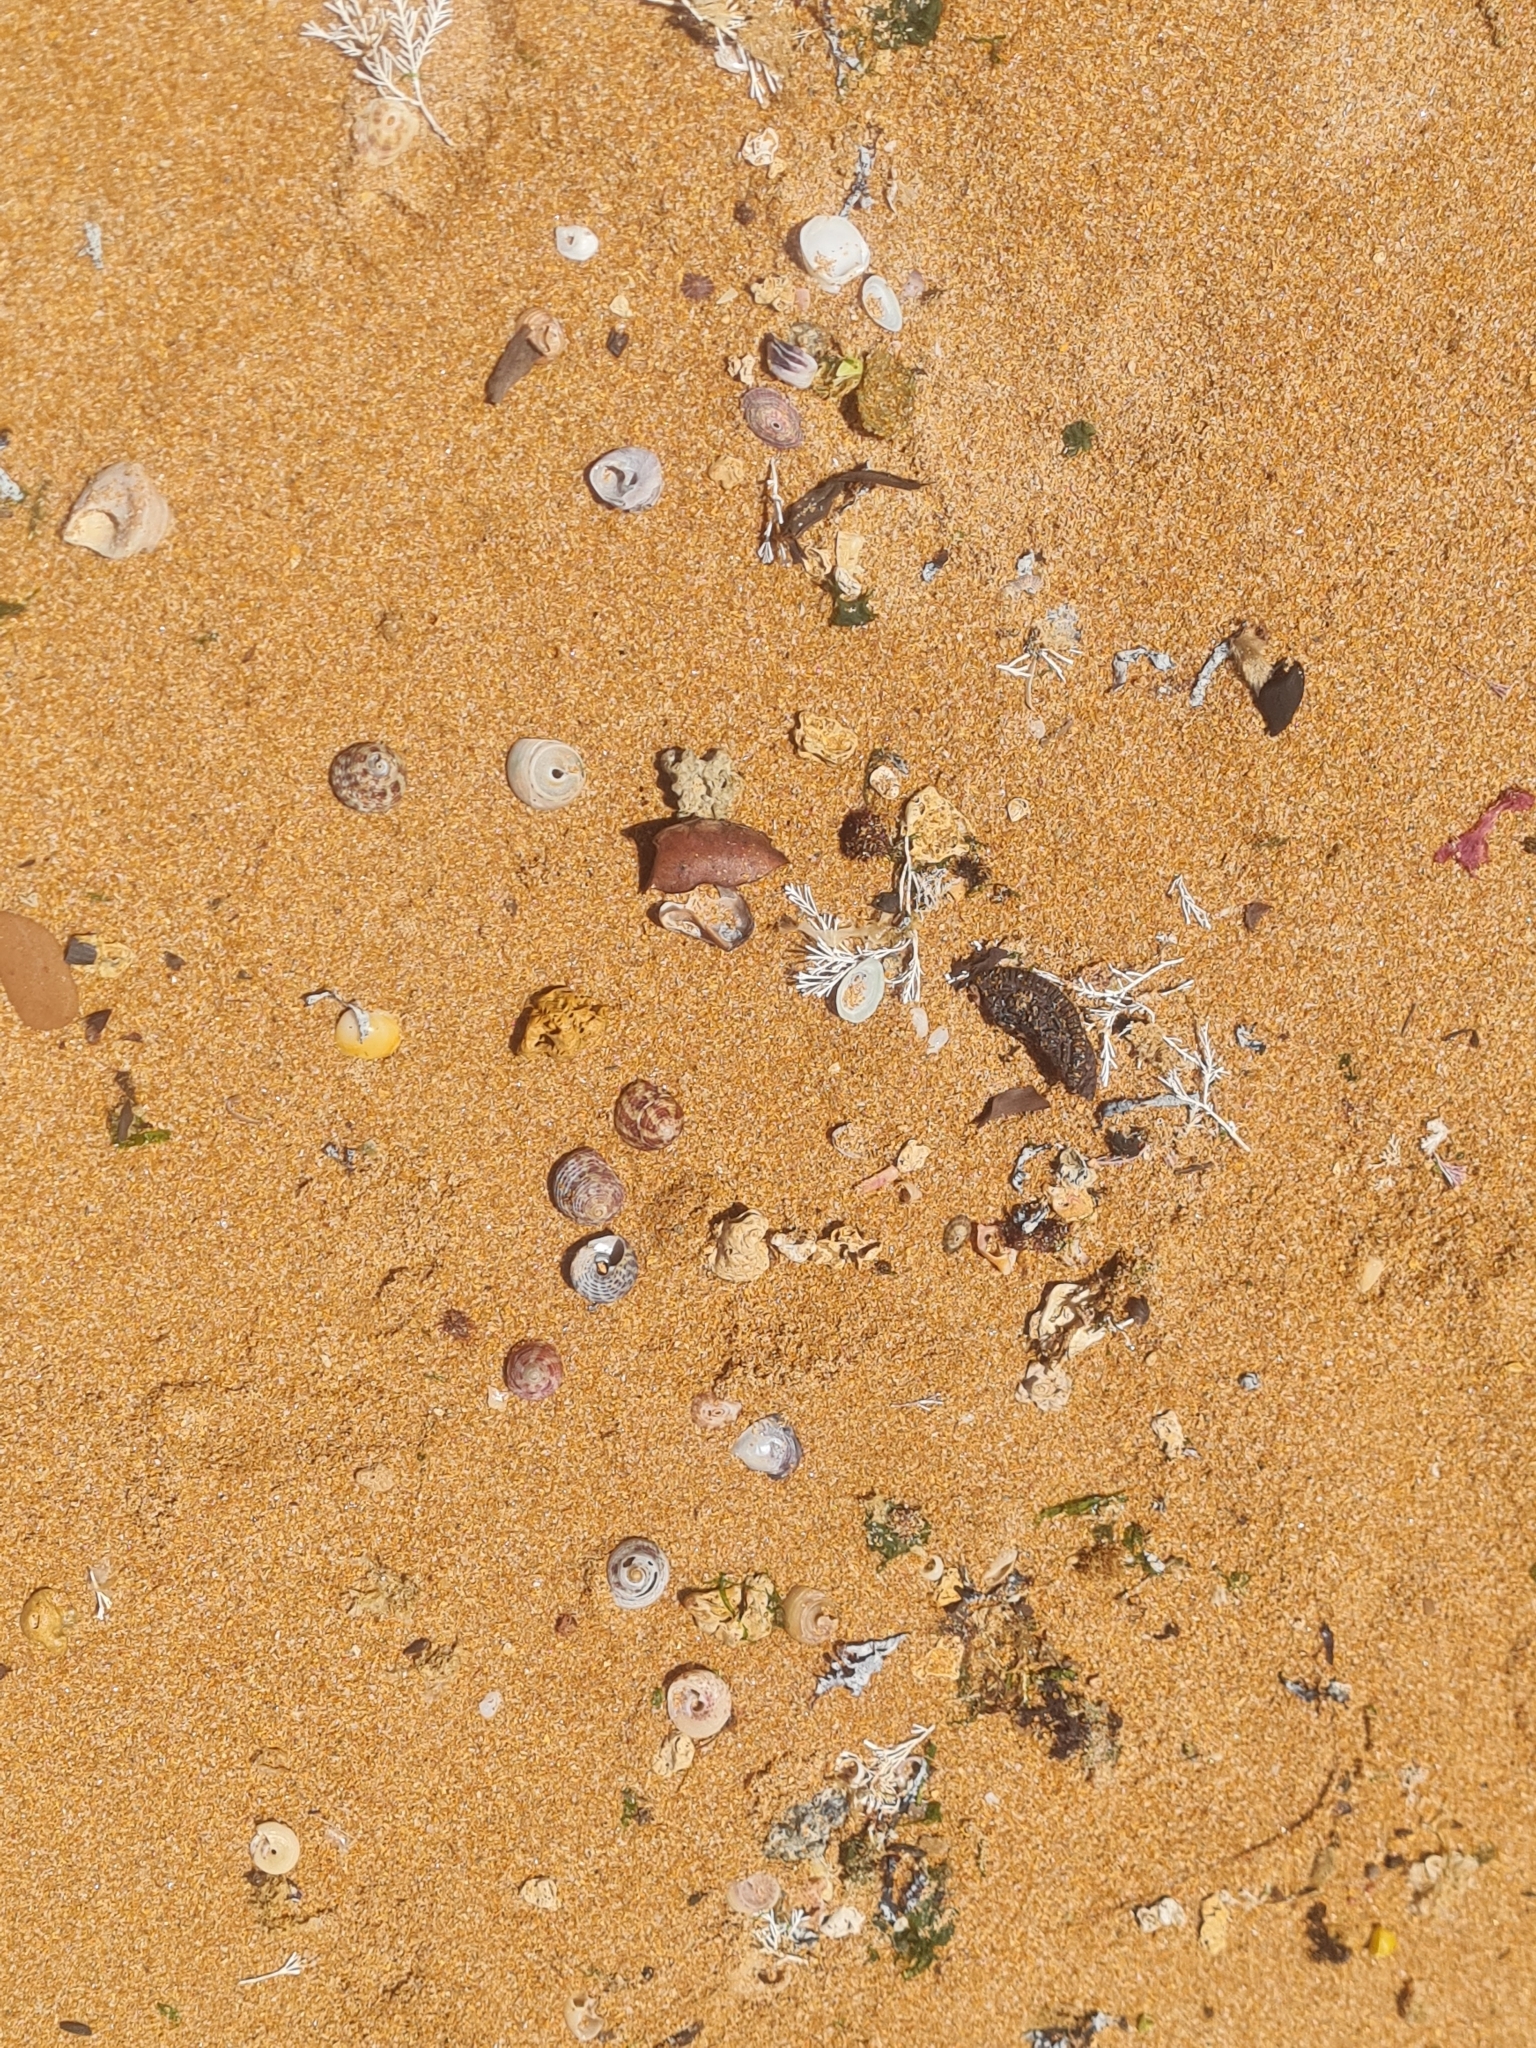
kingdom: Animalia
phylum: Mollusca
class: Gastropoda
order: Trochida
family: Tegulidae
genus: Agathistoma
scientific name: Agathistoma viridulum
